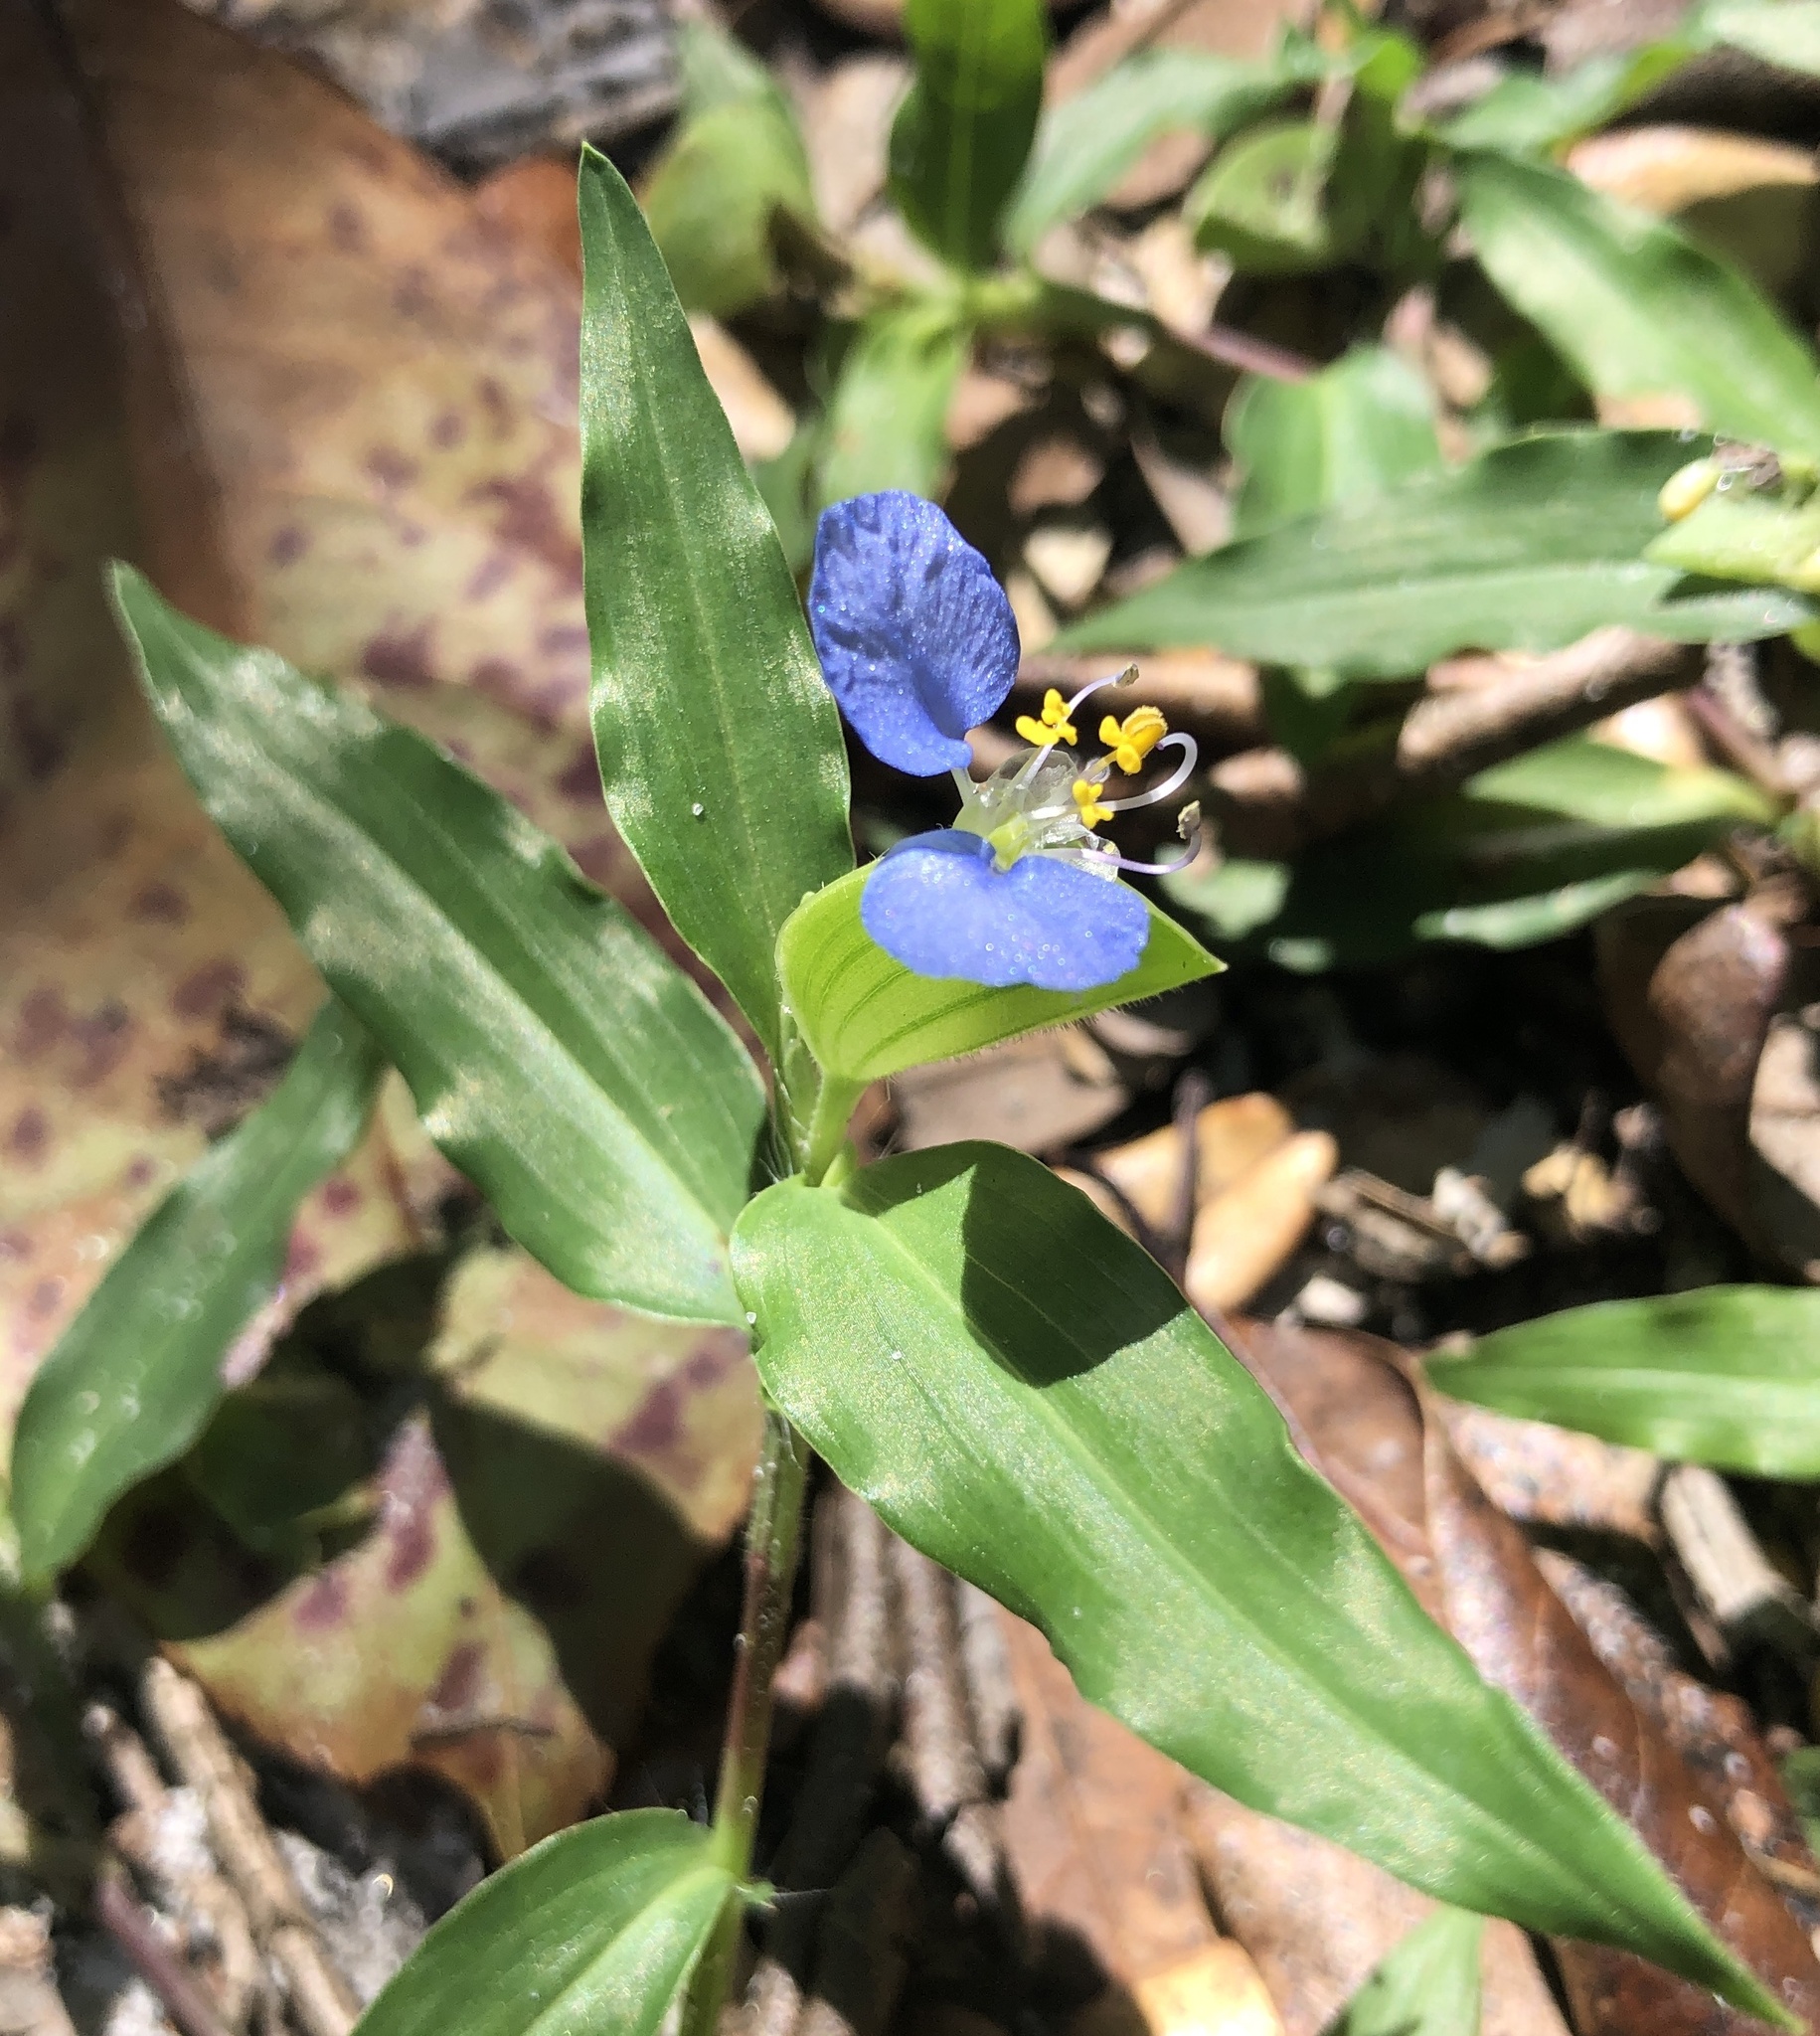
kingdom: Plantae
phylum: Tracheophyta
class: Liliopsida
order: Commelinales
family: Commelinaceae
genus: Commelina
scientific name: Commelina erecta
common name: Blousel blommetjie
